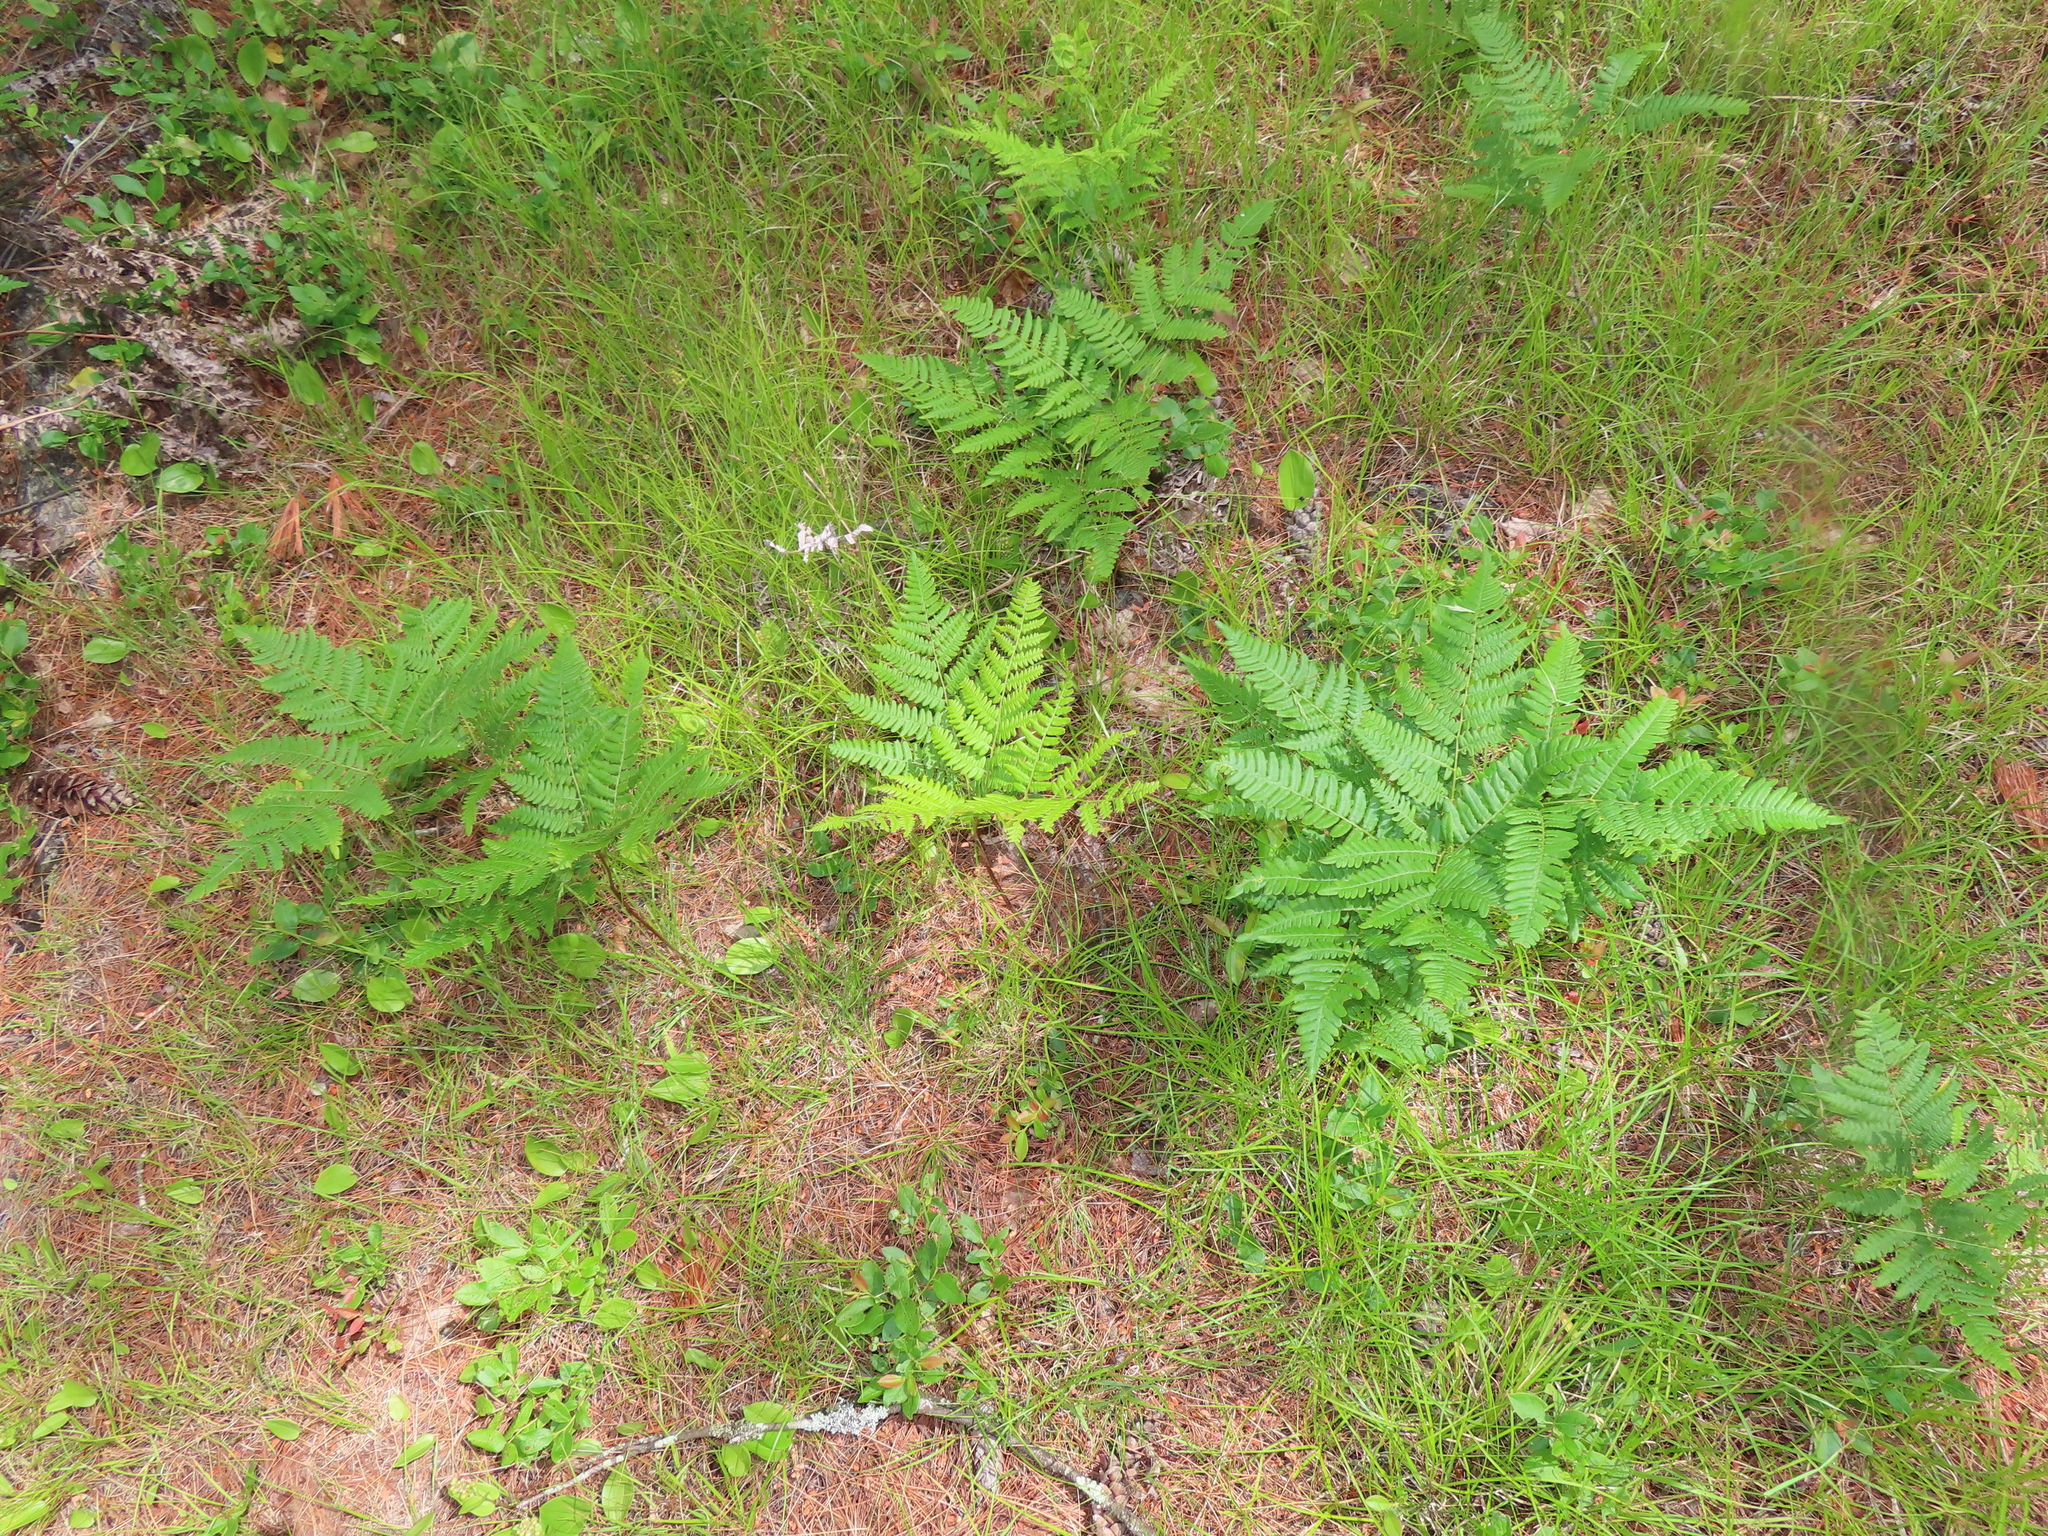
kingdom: Plantae
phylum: Tracheophyta
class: Polypodiopsida
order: Polypodiales
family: Dennstaedtiaceae
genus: Pteridium
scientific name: Pteridium aquilinum
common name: Bracken
